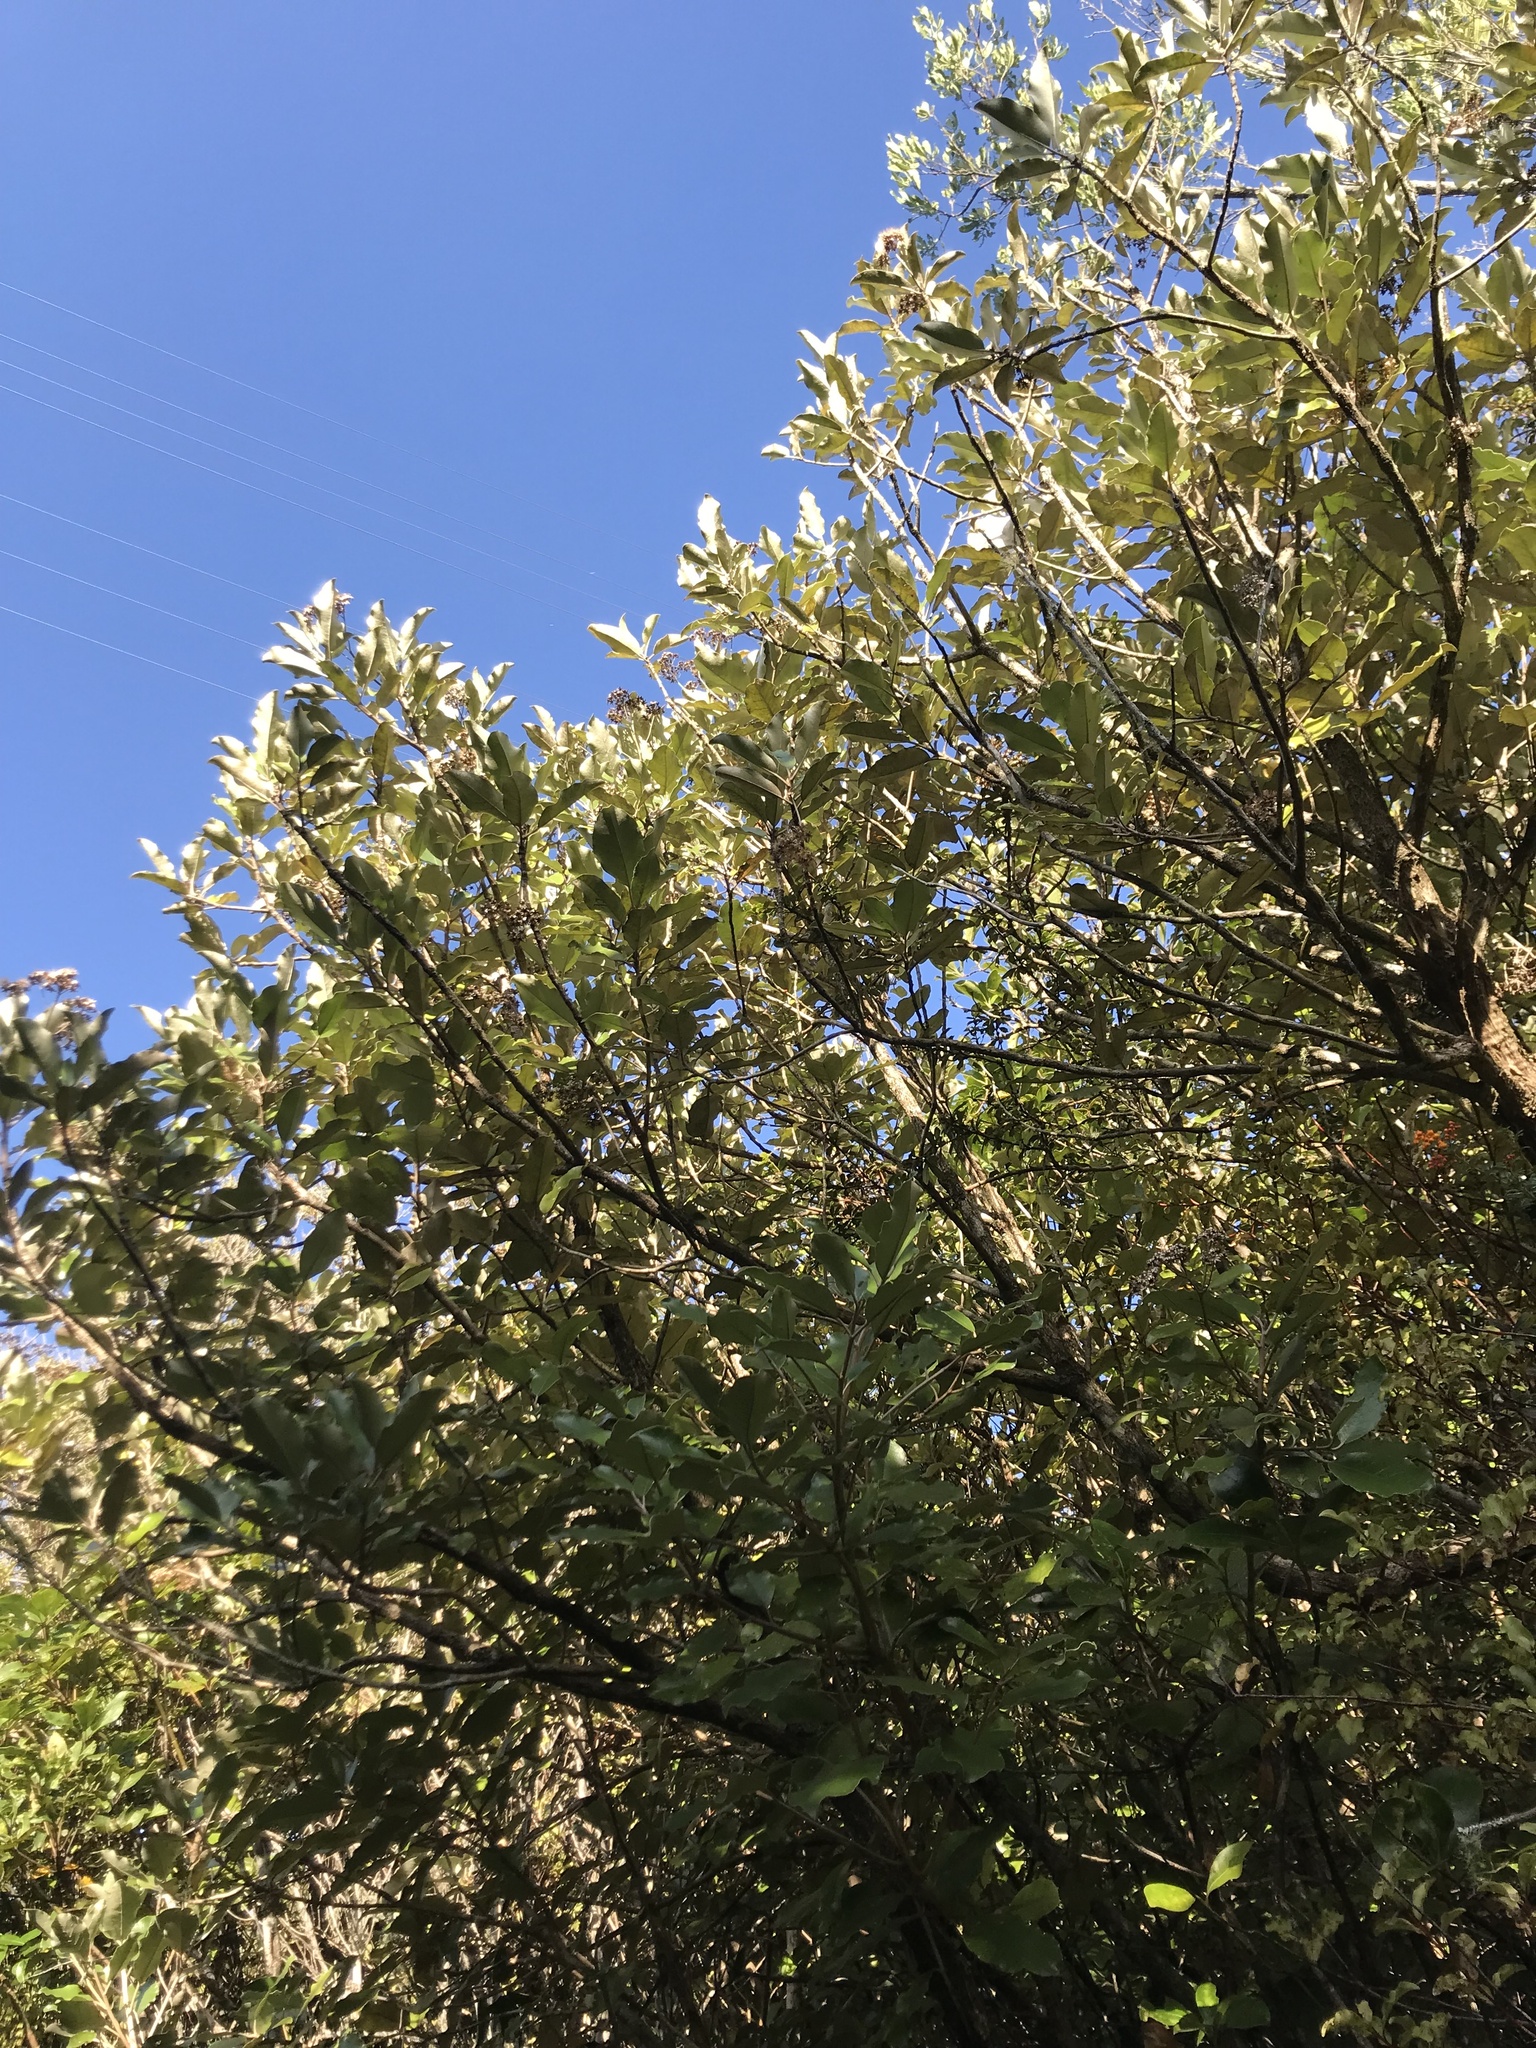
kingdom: Plantae
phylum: Tracheophyta
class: Magnoliopsida
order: Asterales
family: Asteraceae
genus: Olearia
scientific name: Olearia furfuracea
